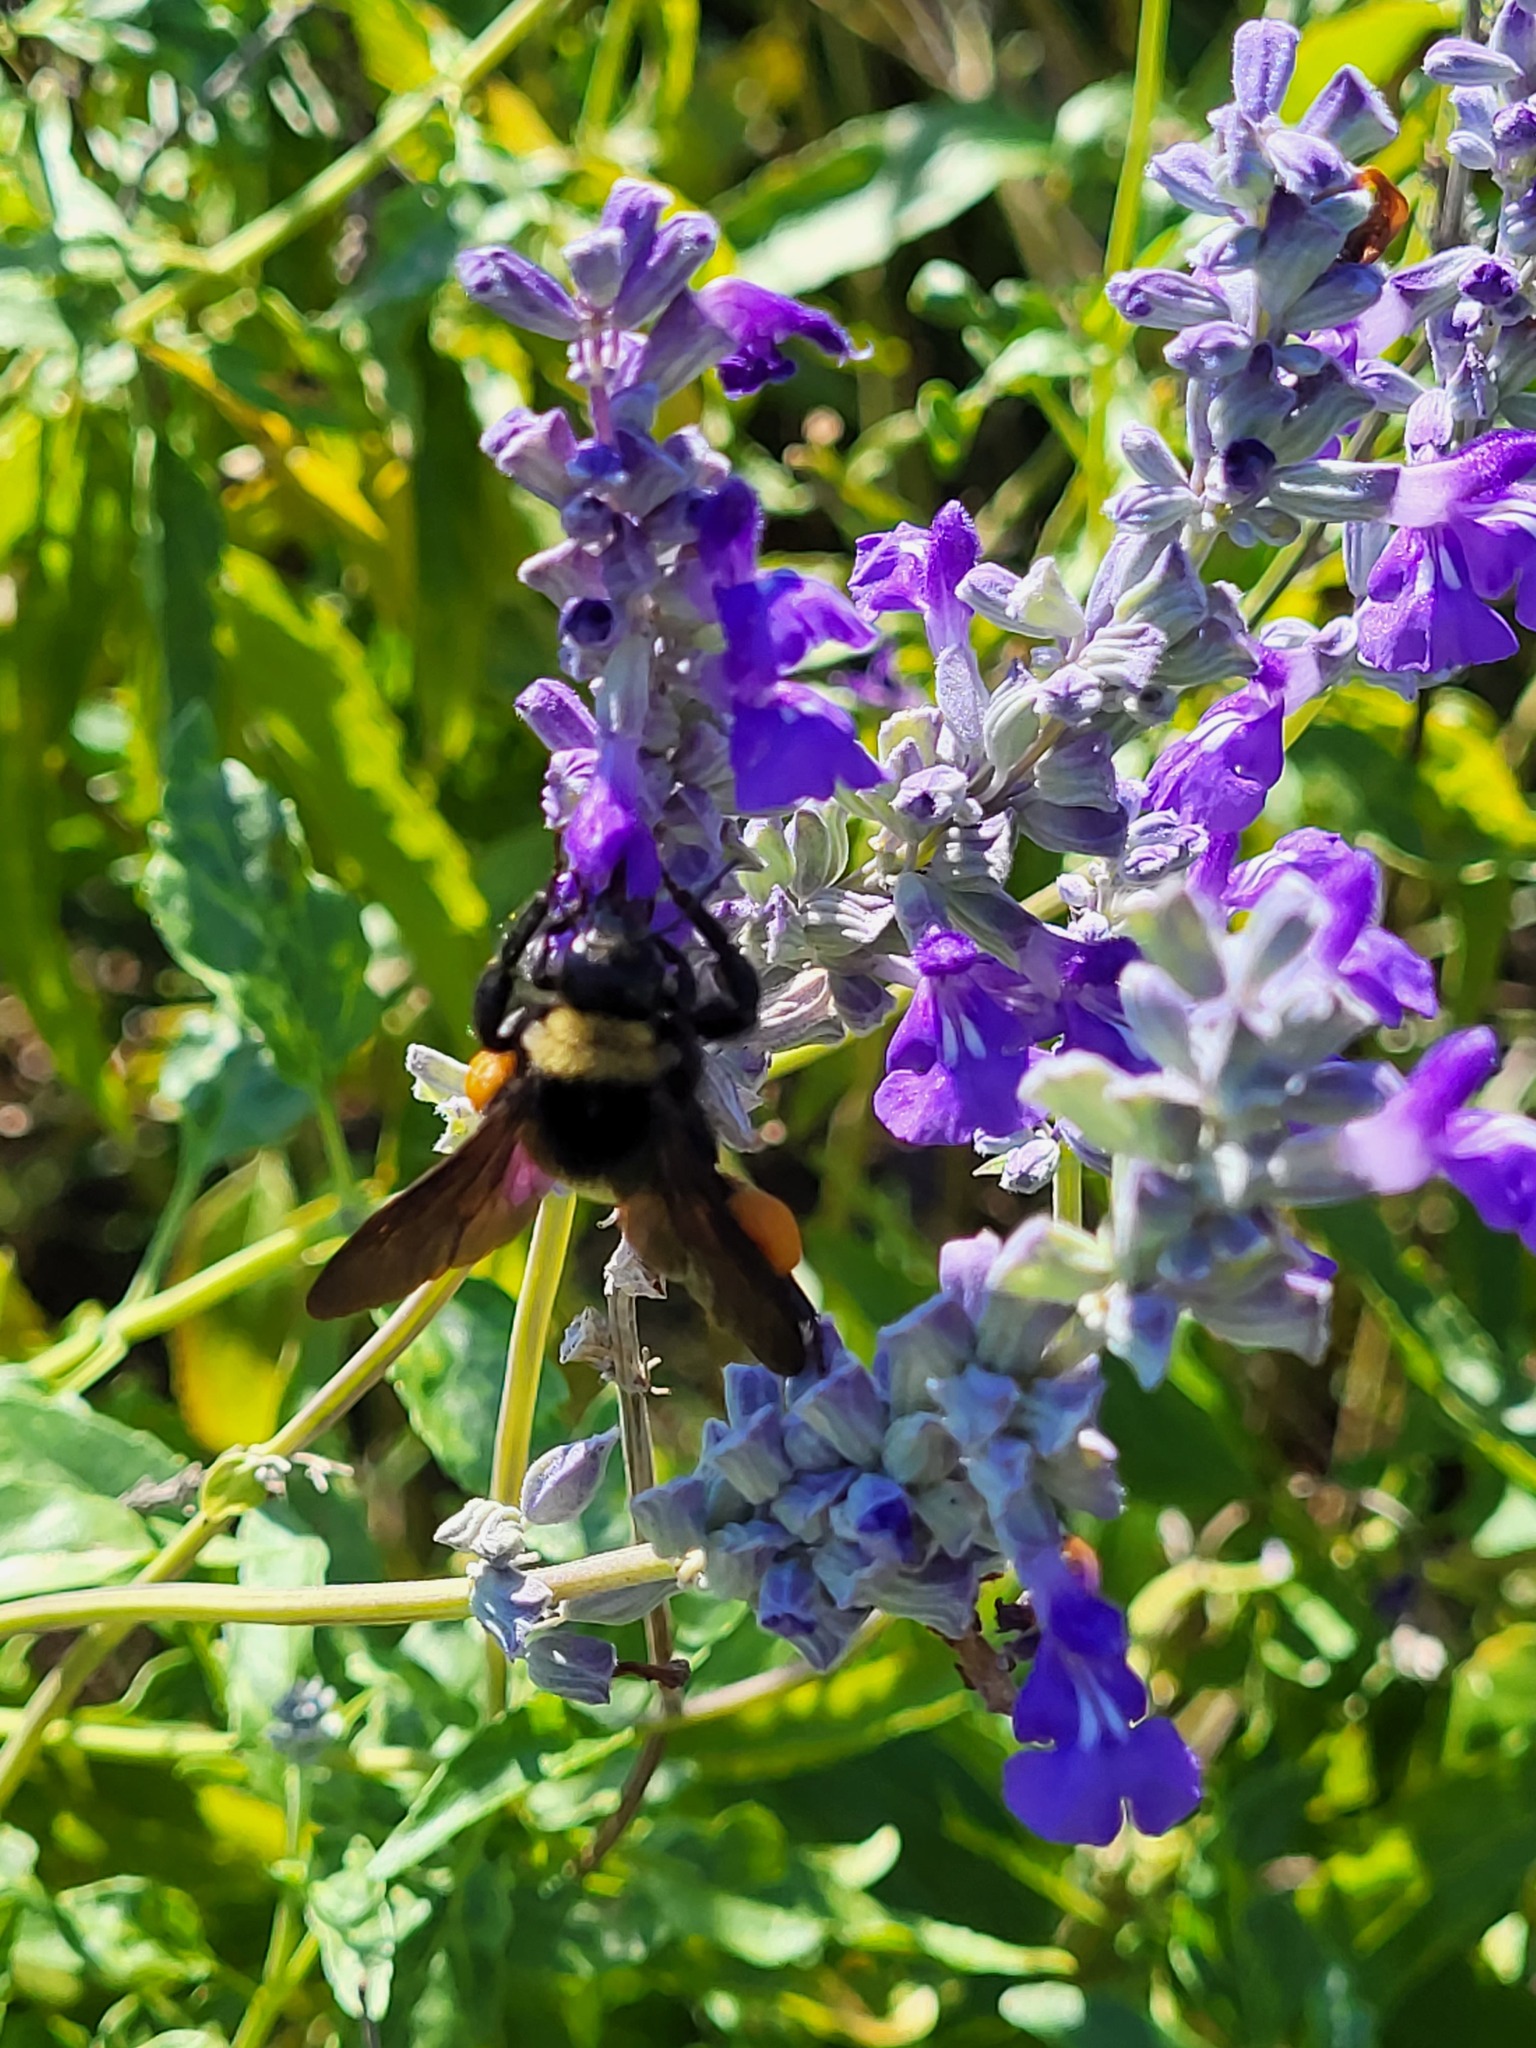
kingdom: Animalia
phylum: Arthropoda
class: Insecta
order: Hymenoptera
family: Apidae
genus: Bombus
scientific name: Bombus pensylvanicus
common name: Bumble bee
